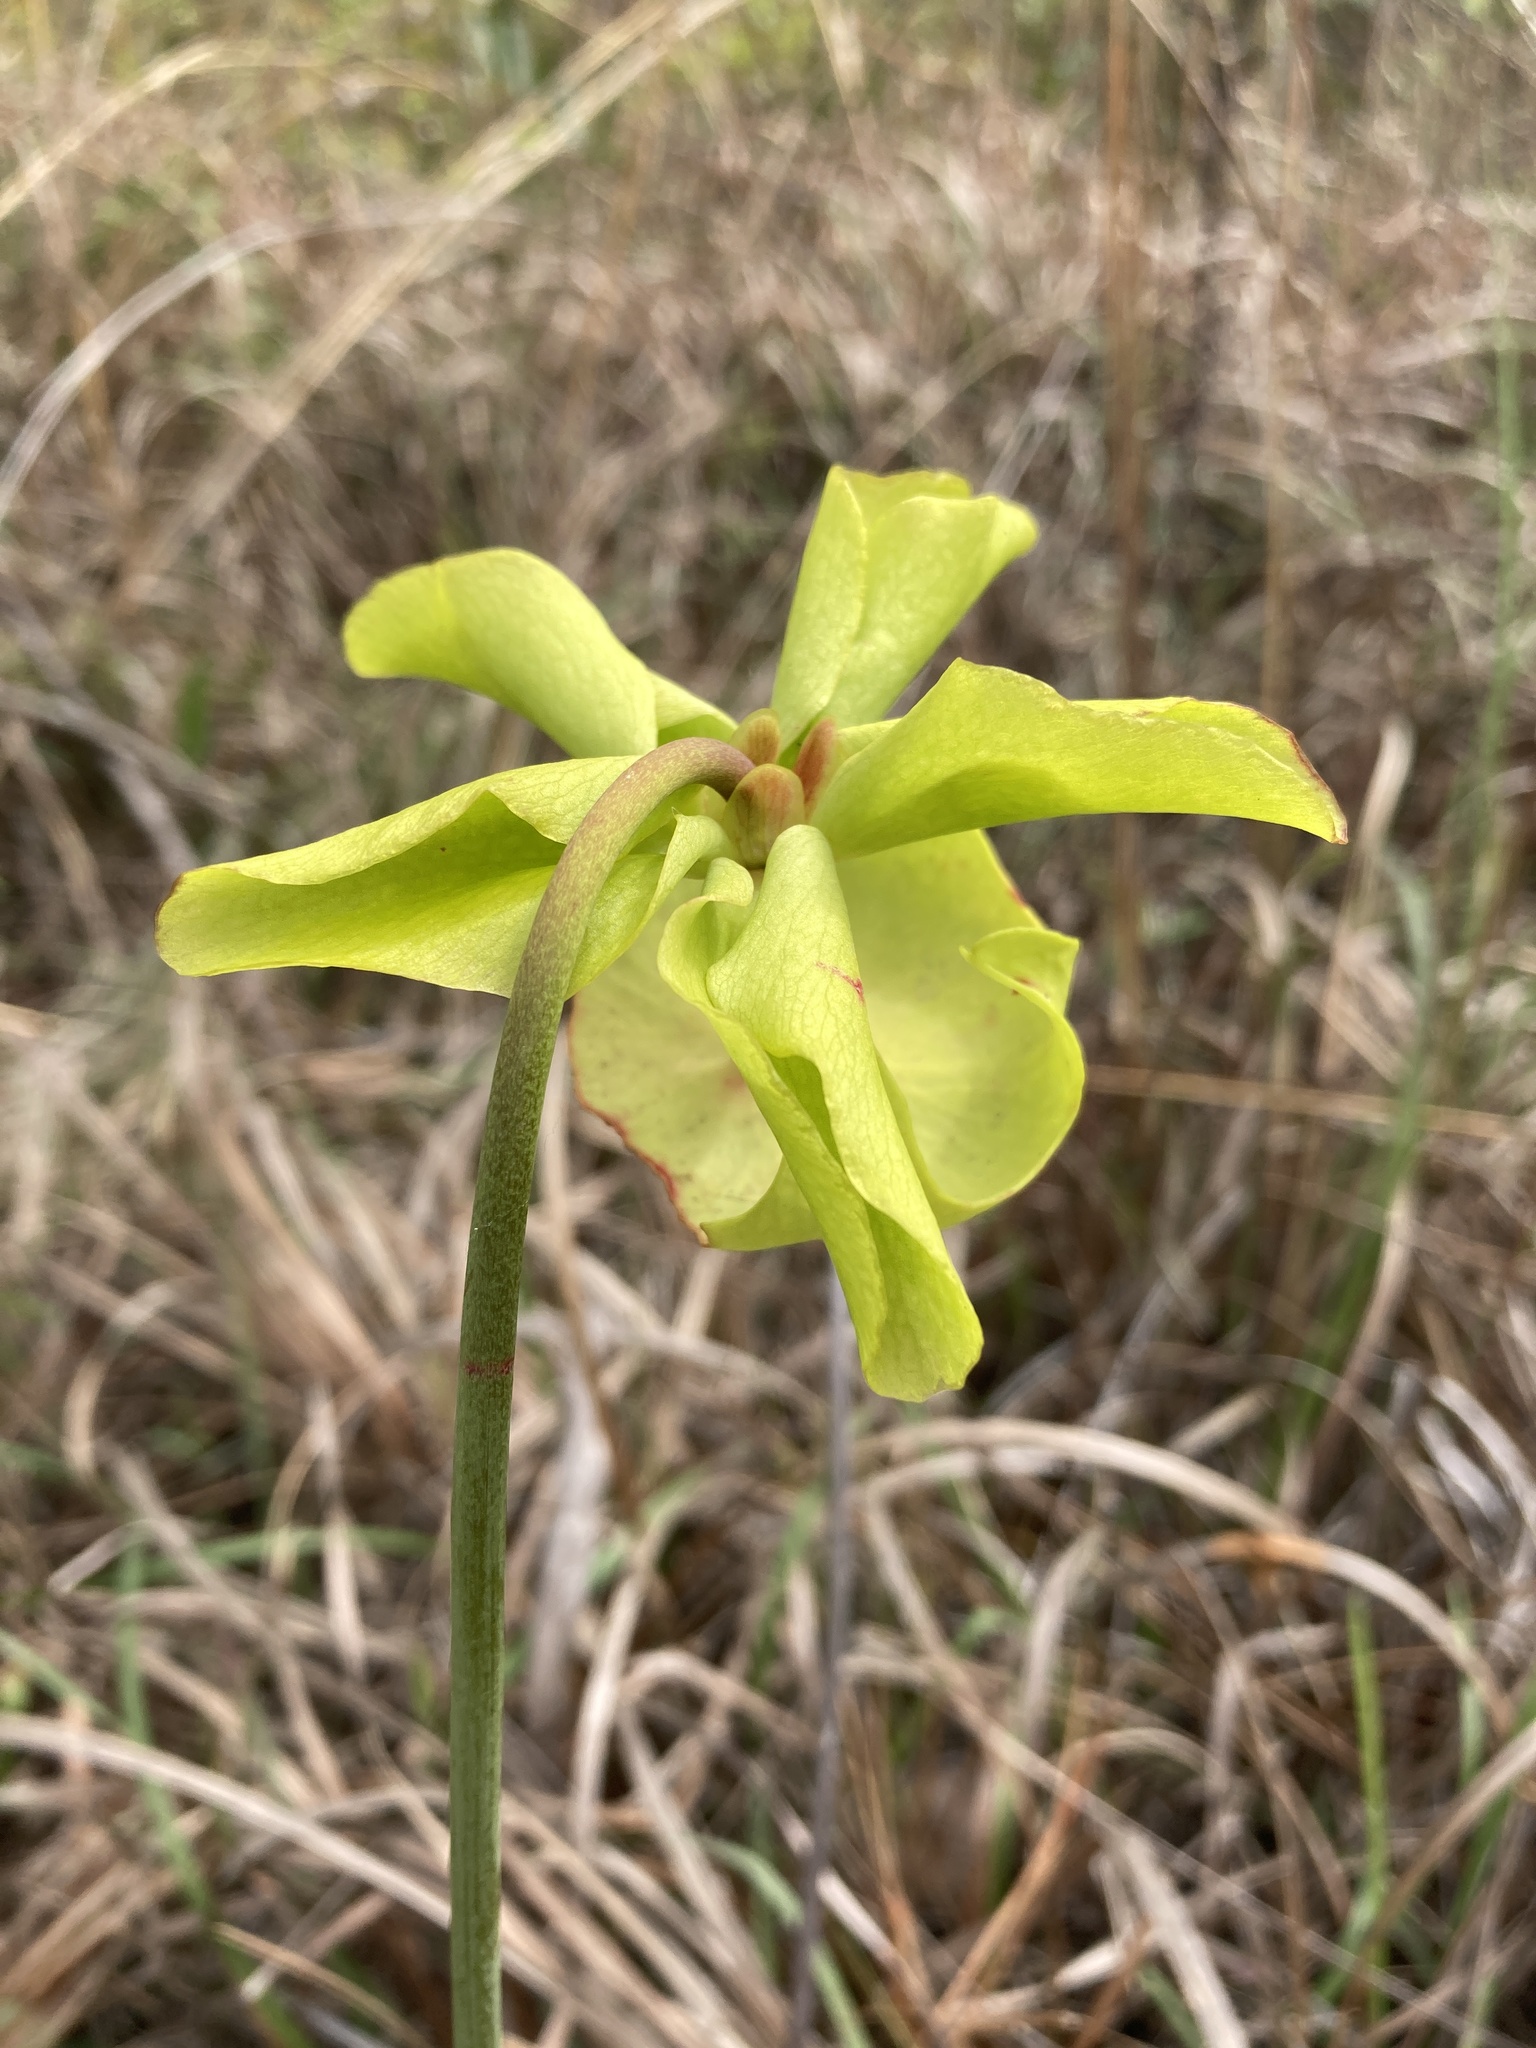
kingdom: Plantae
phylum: Tracheophyta
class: Magnoliopsida
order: Ericales
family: Sarraceniaceae
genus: Sarracenia
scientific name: Sarracenia alata
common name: Yellow trumpets
